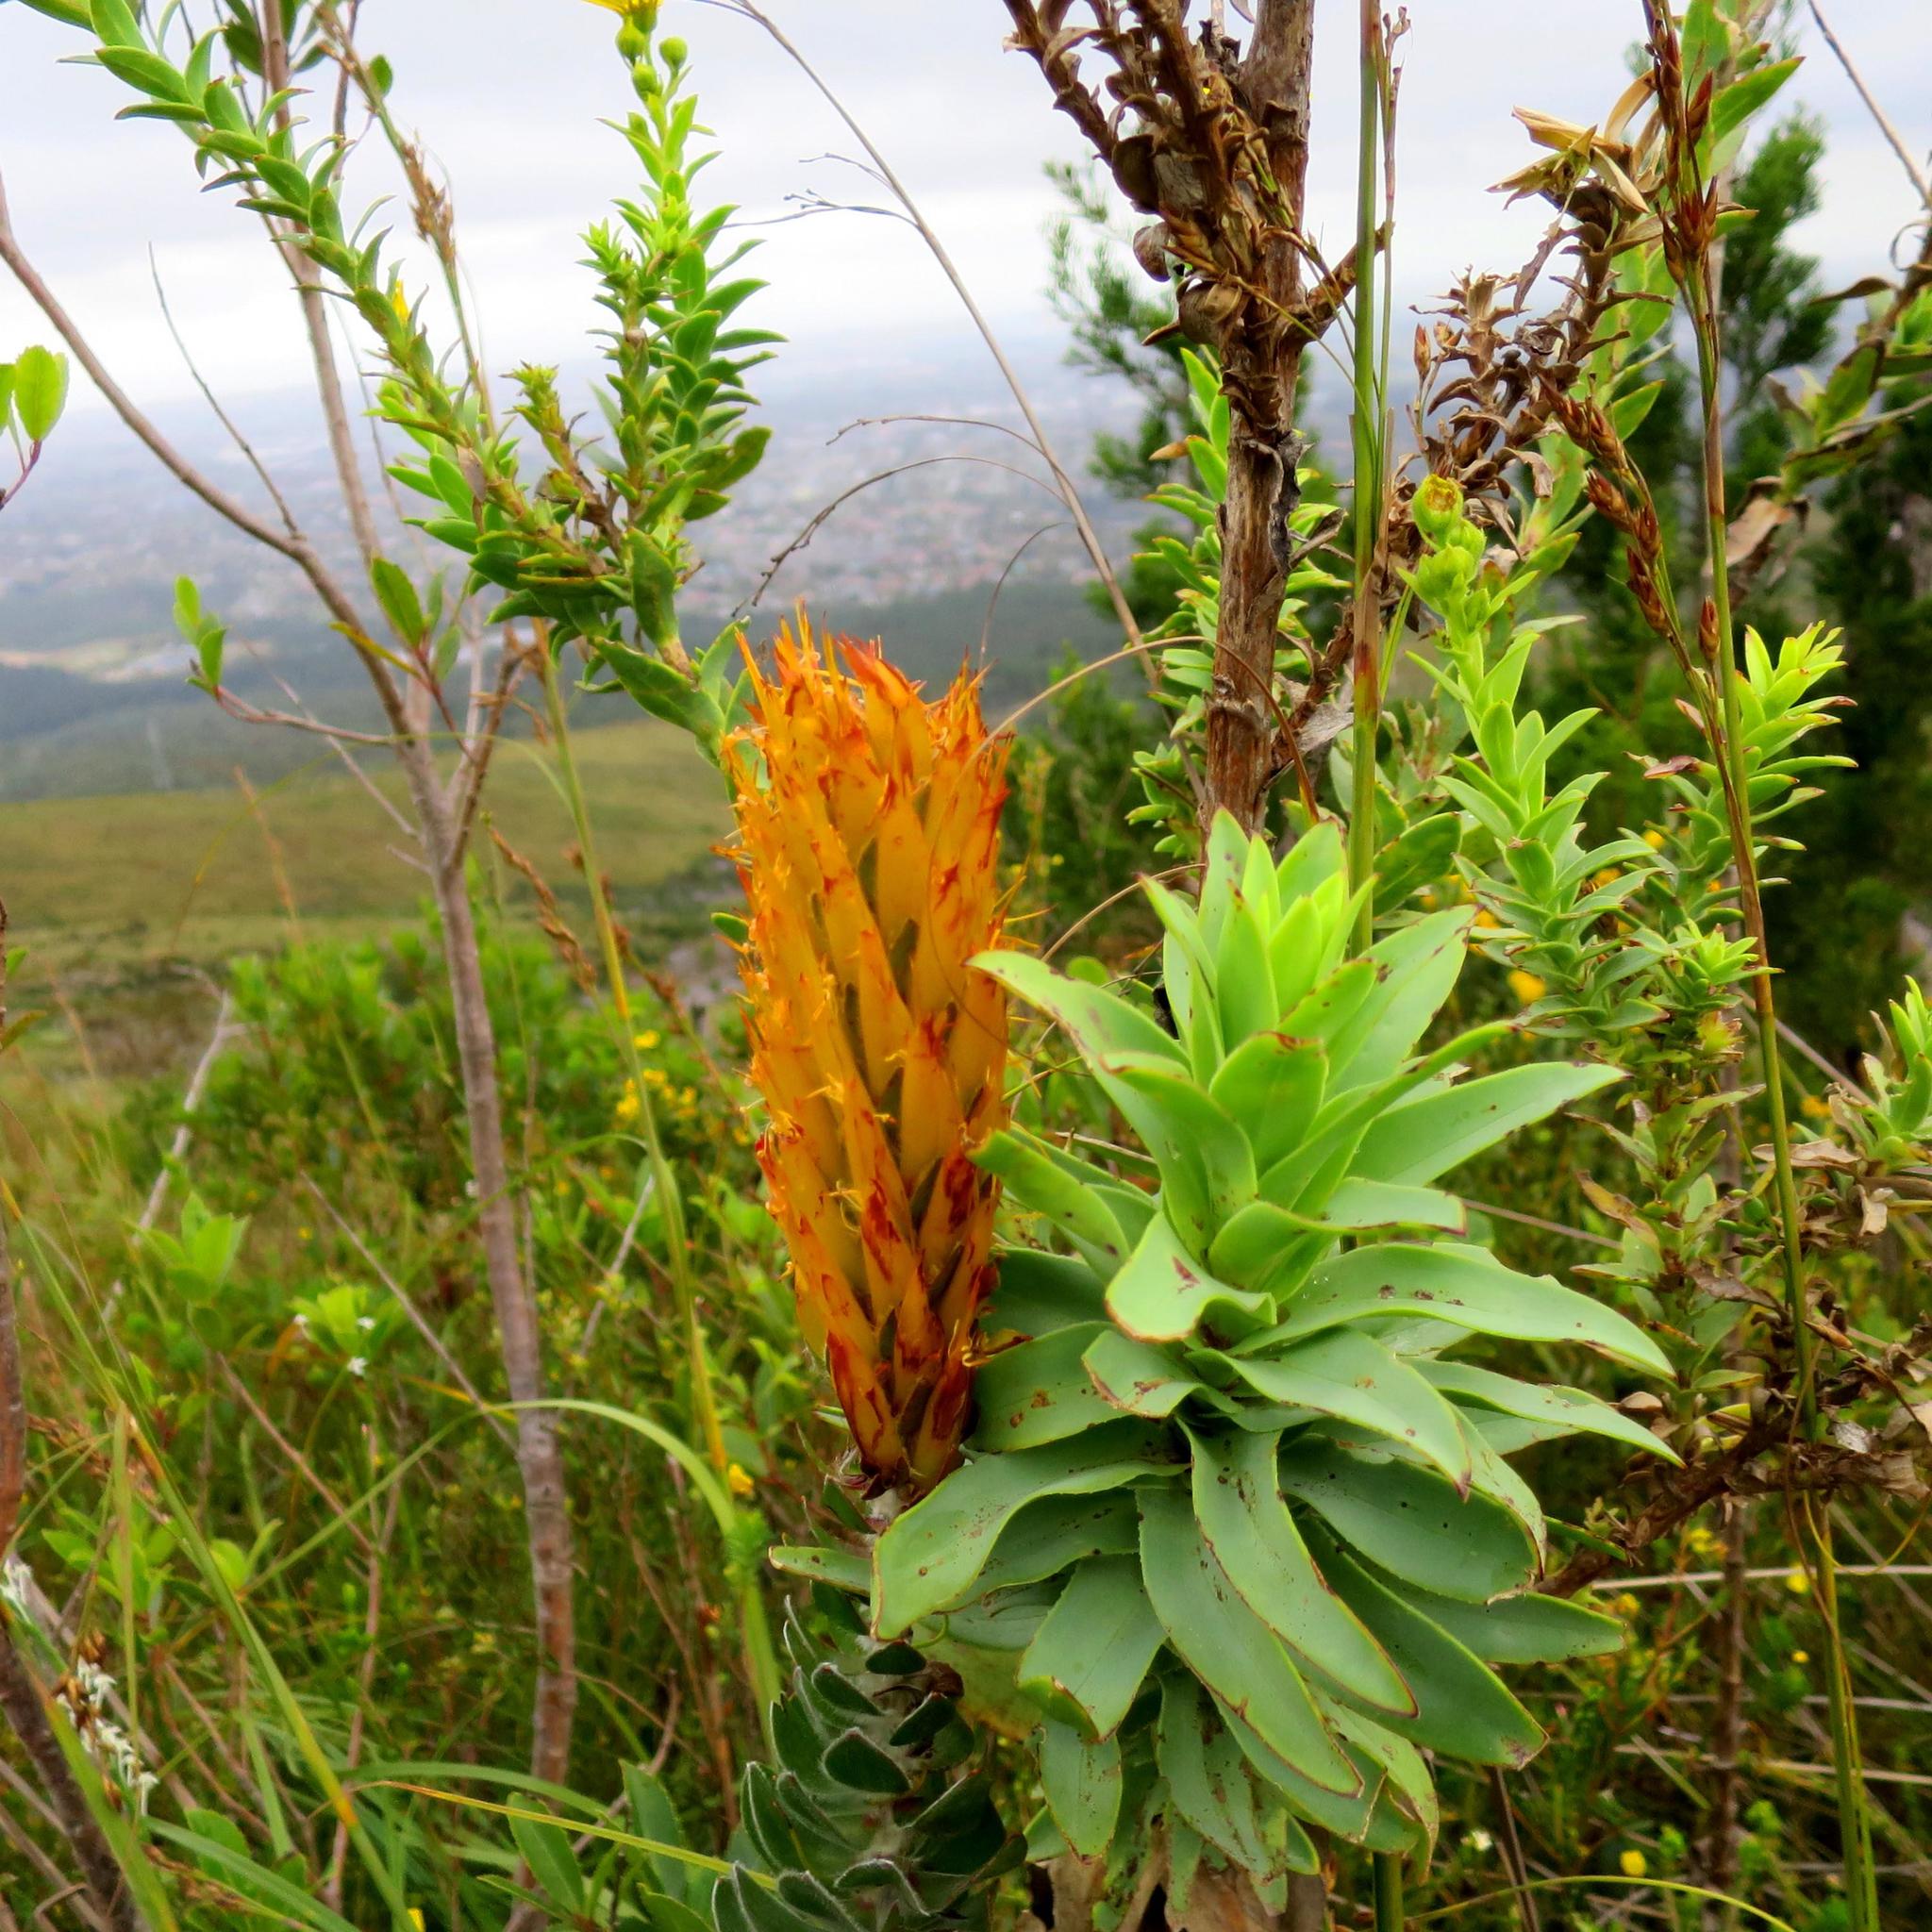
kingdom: Plantae
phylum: Tracheophyta
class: Magnoliopsida
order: Proteales
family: Proteaceae
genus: Mimetes
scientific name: Mimetes pauciflora
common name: Three-flowered pagoda
